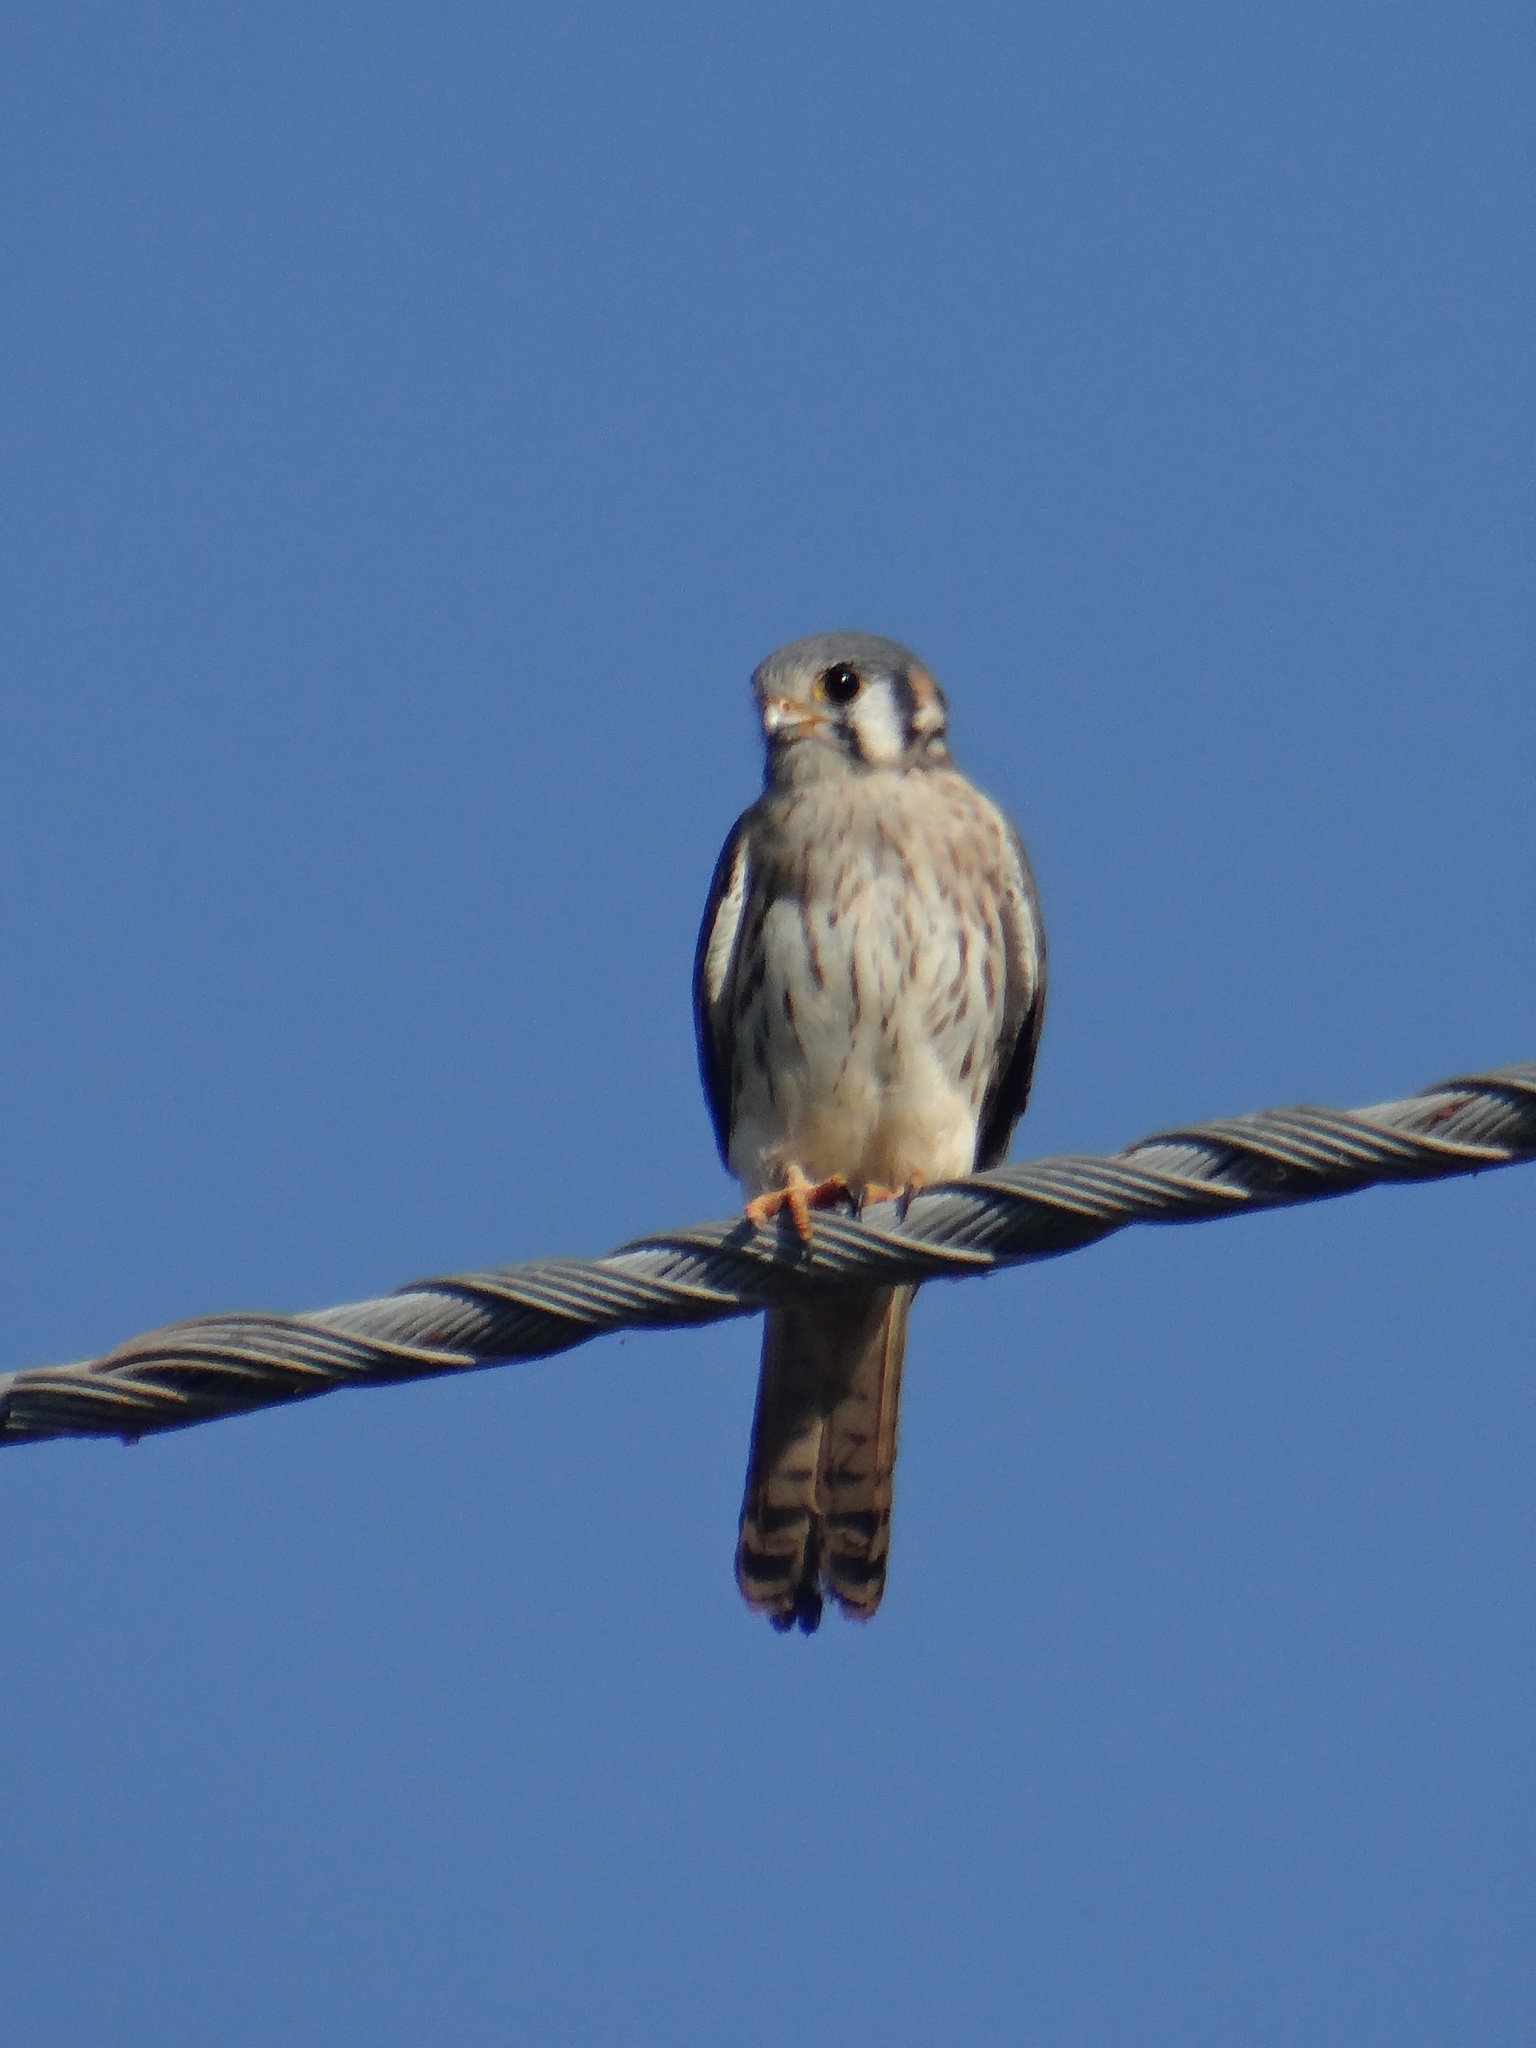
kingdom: Animalia
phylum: Chordata
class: Aves
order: Falconiformes
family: Falconidae
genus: Falco
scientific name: Falco sparverius
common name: American kestrel
